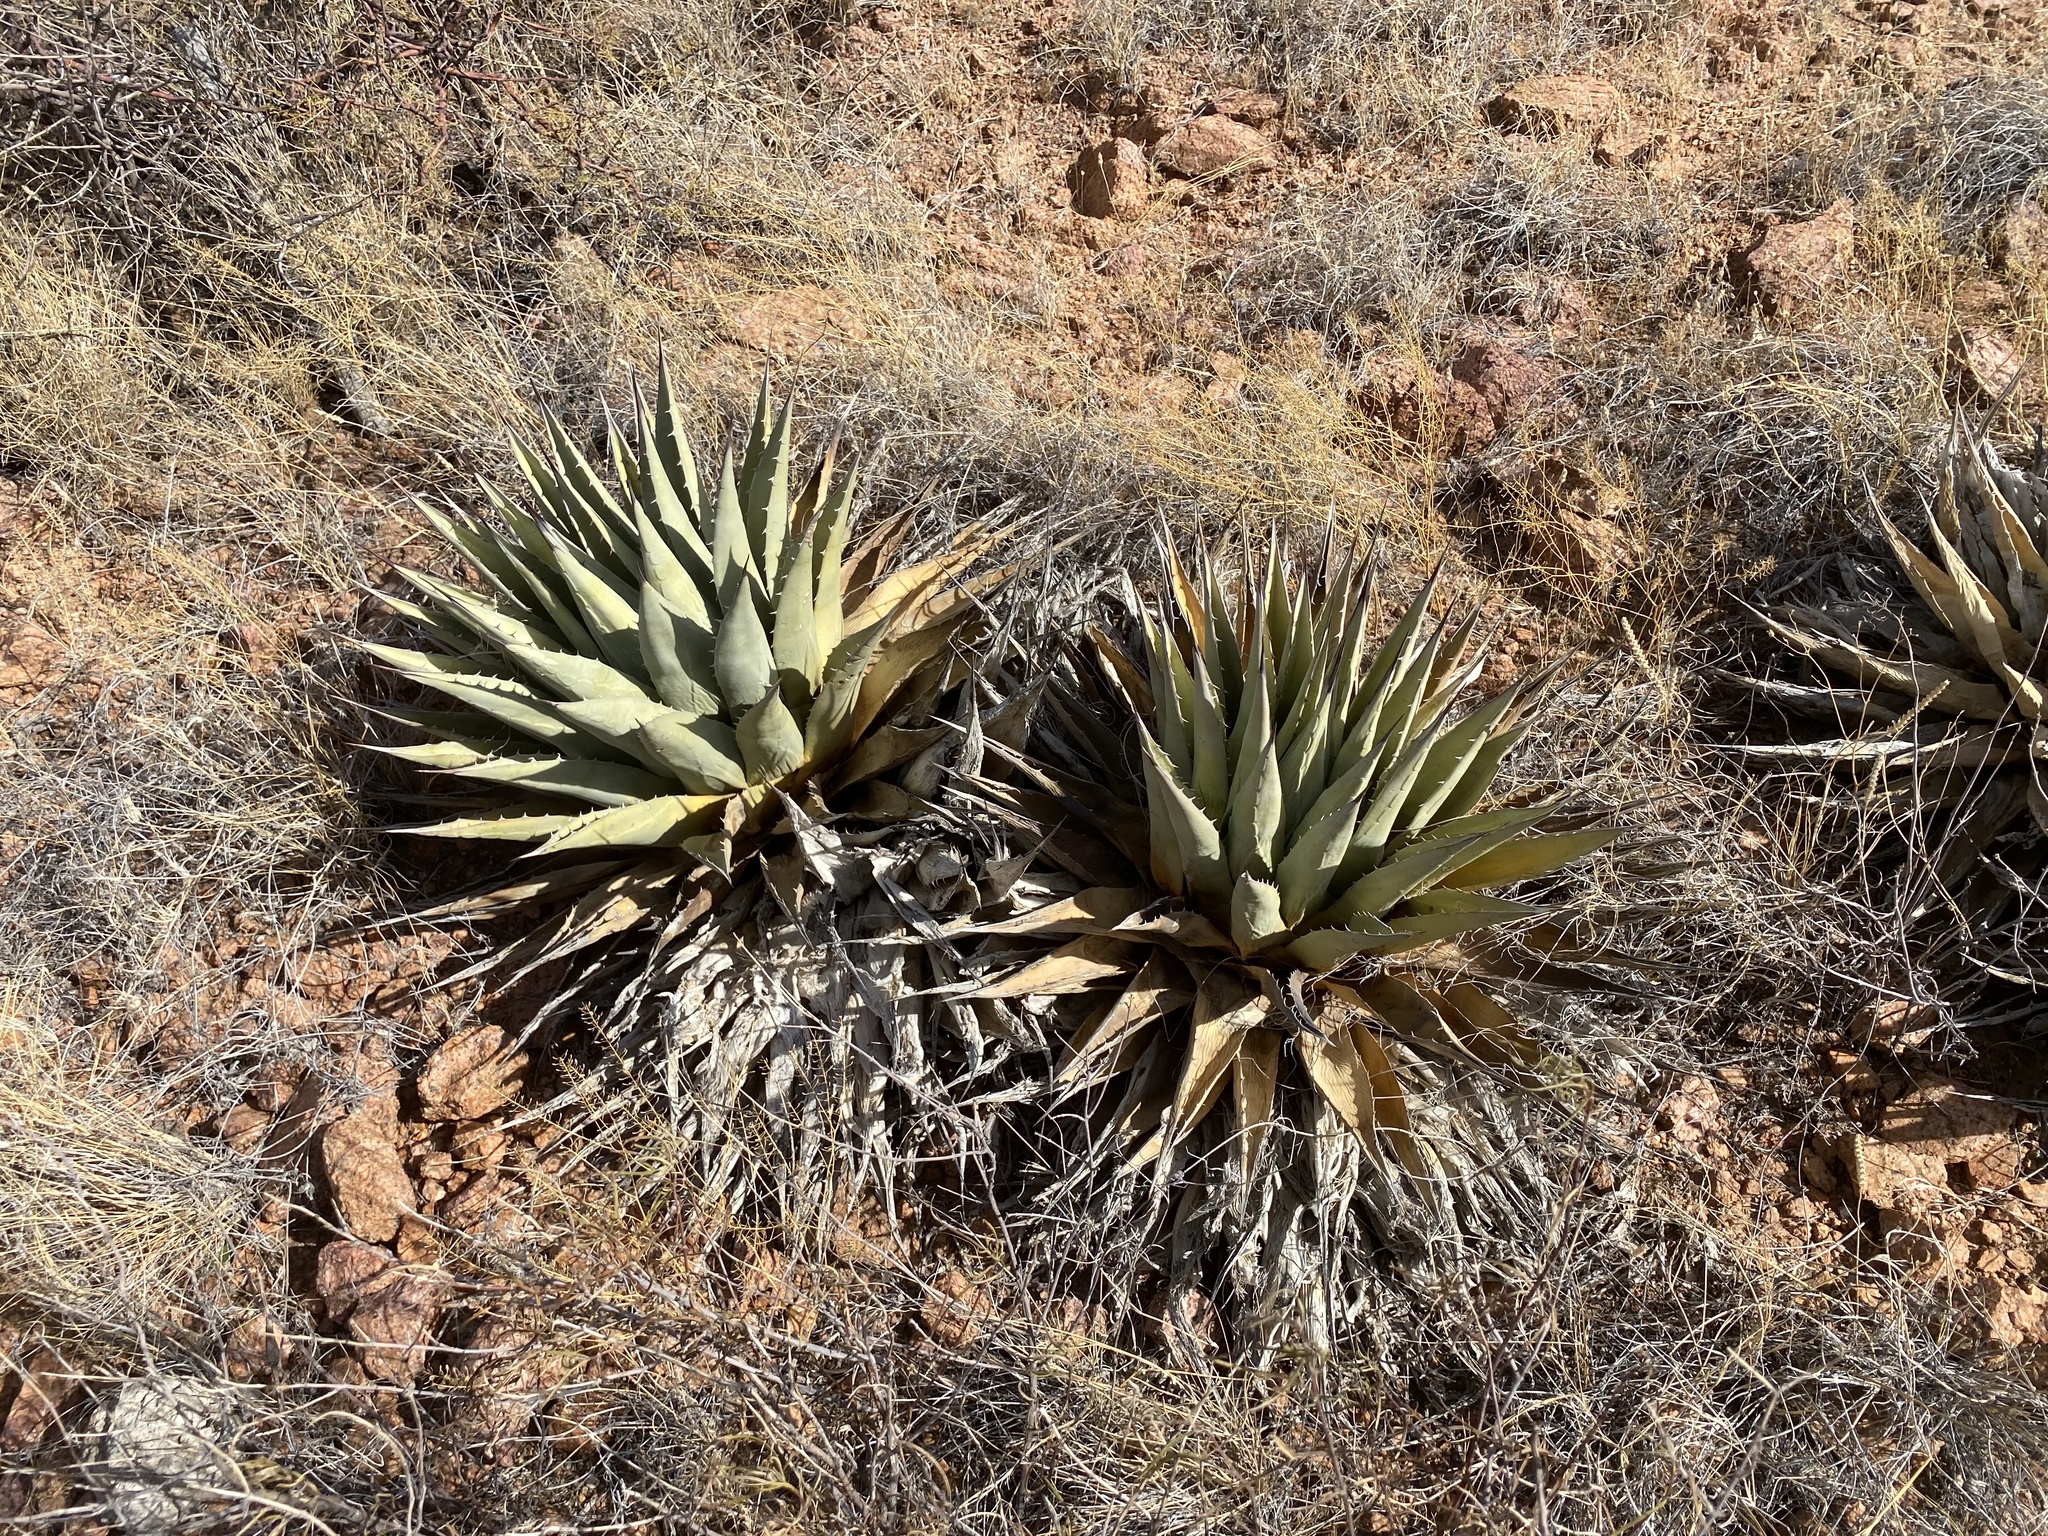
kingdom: Plantae
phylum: Tracheophyta
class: Liliopsida
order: Asparagales
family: Asparagaceae
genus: Agave
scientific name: Agave parryi
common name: Parry's agave
